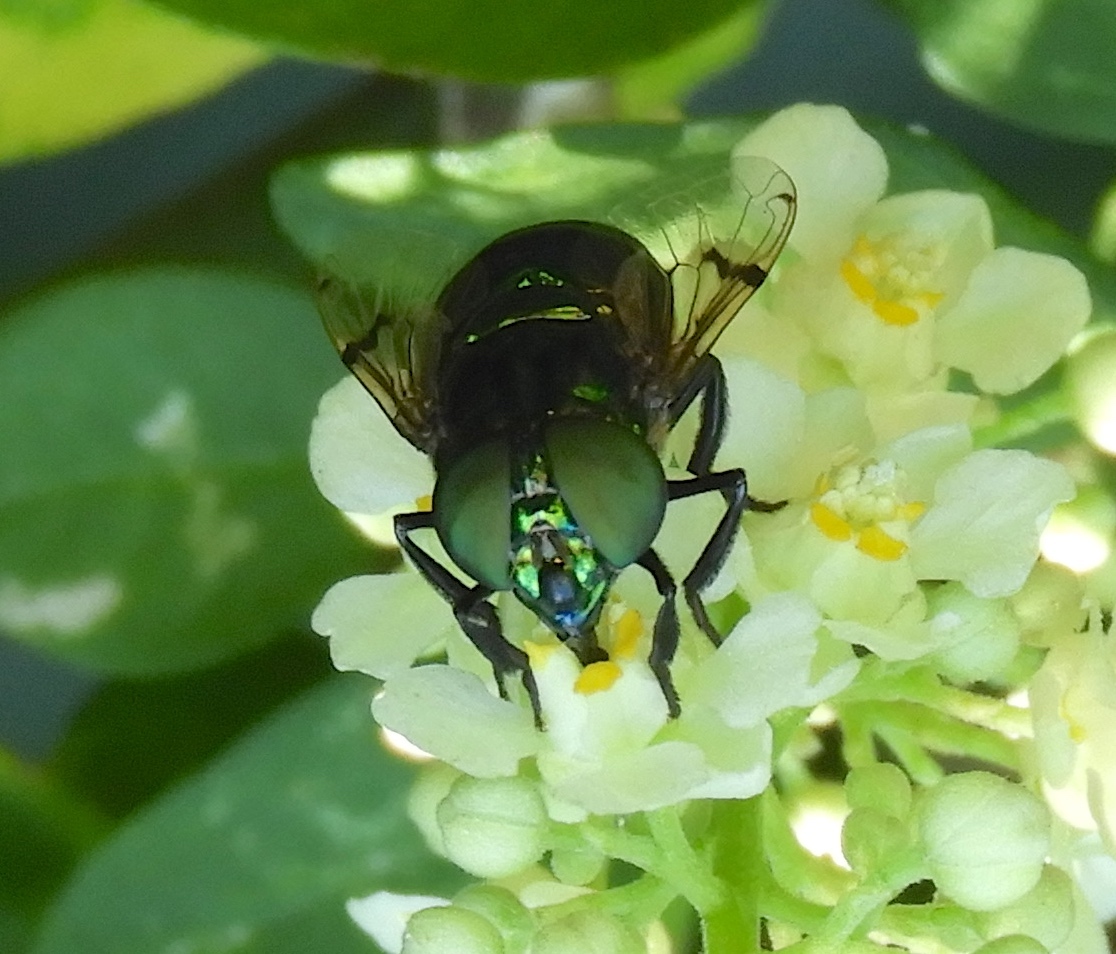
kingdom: Animalia
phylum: Arthropoda
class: Insecta
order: Diptera
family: Syrphidae
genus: Ornidia
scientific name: Ornidia
